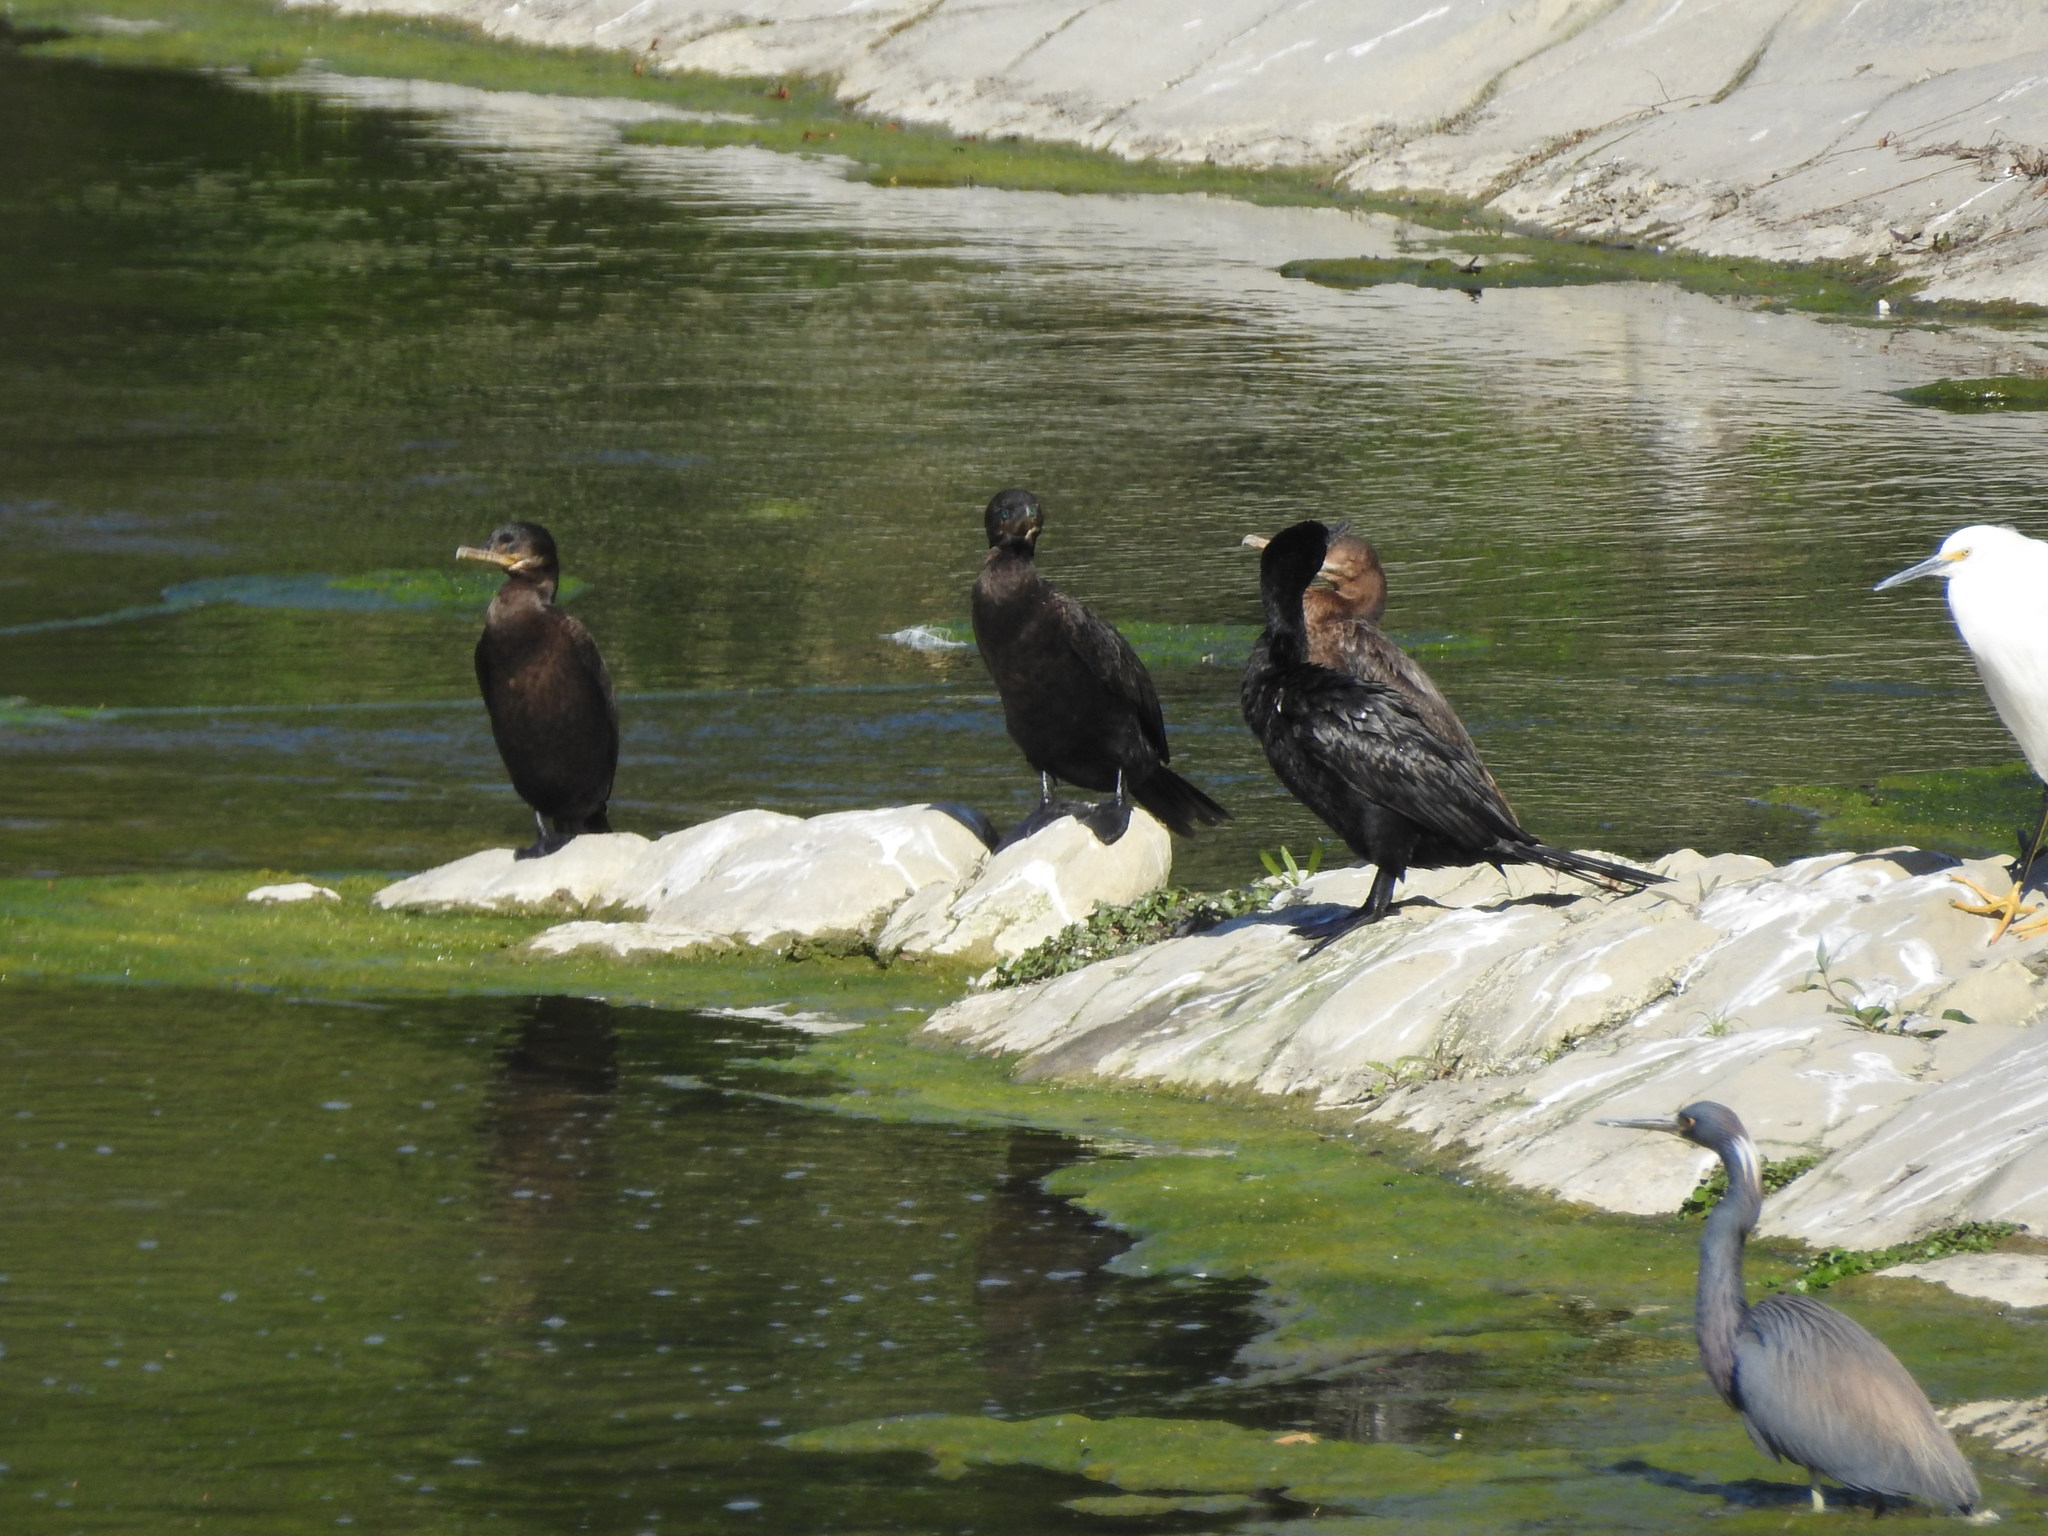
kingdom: Animalia
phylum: Chordata
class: Aves
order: Suliformes
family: Phalacrocoracidae
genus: Phalacrocorax
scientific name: Phalacrocorax brasilianus
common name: Neotropic cormorant
